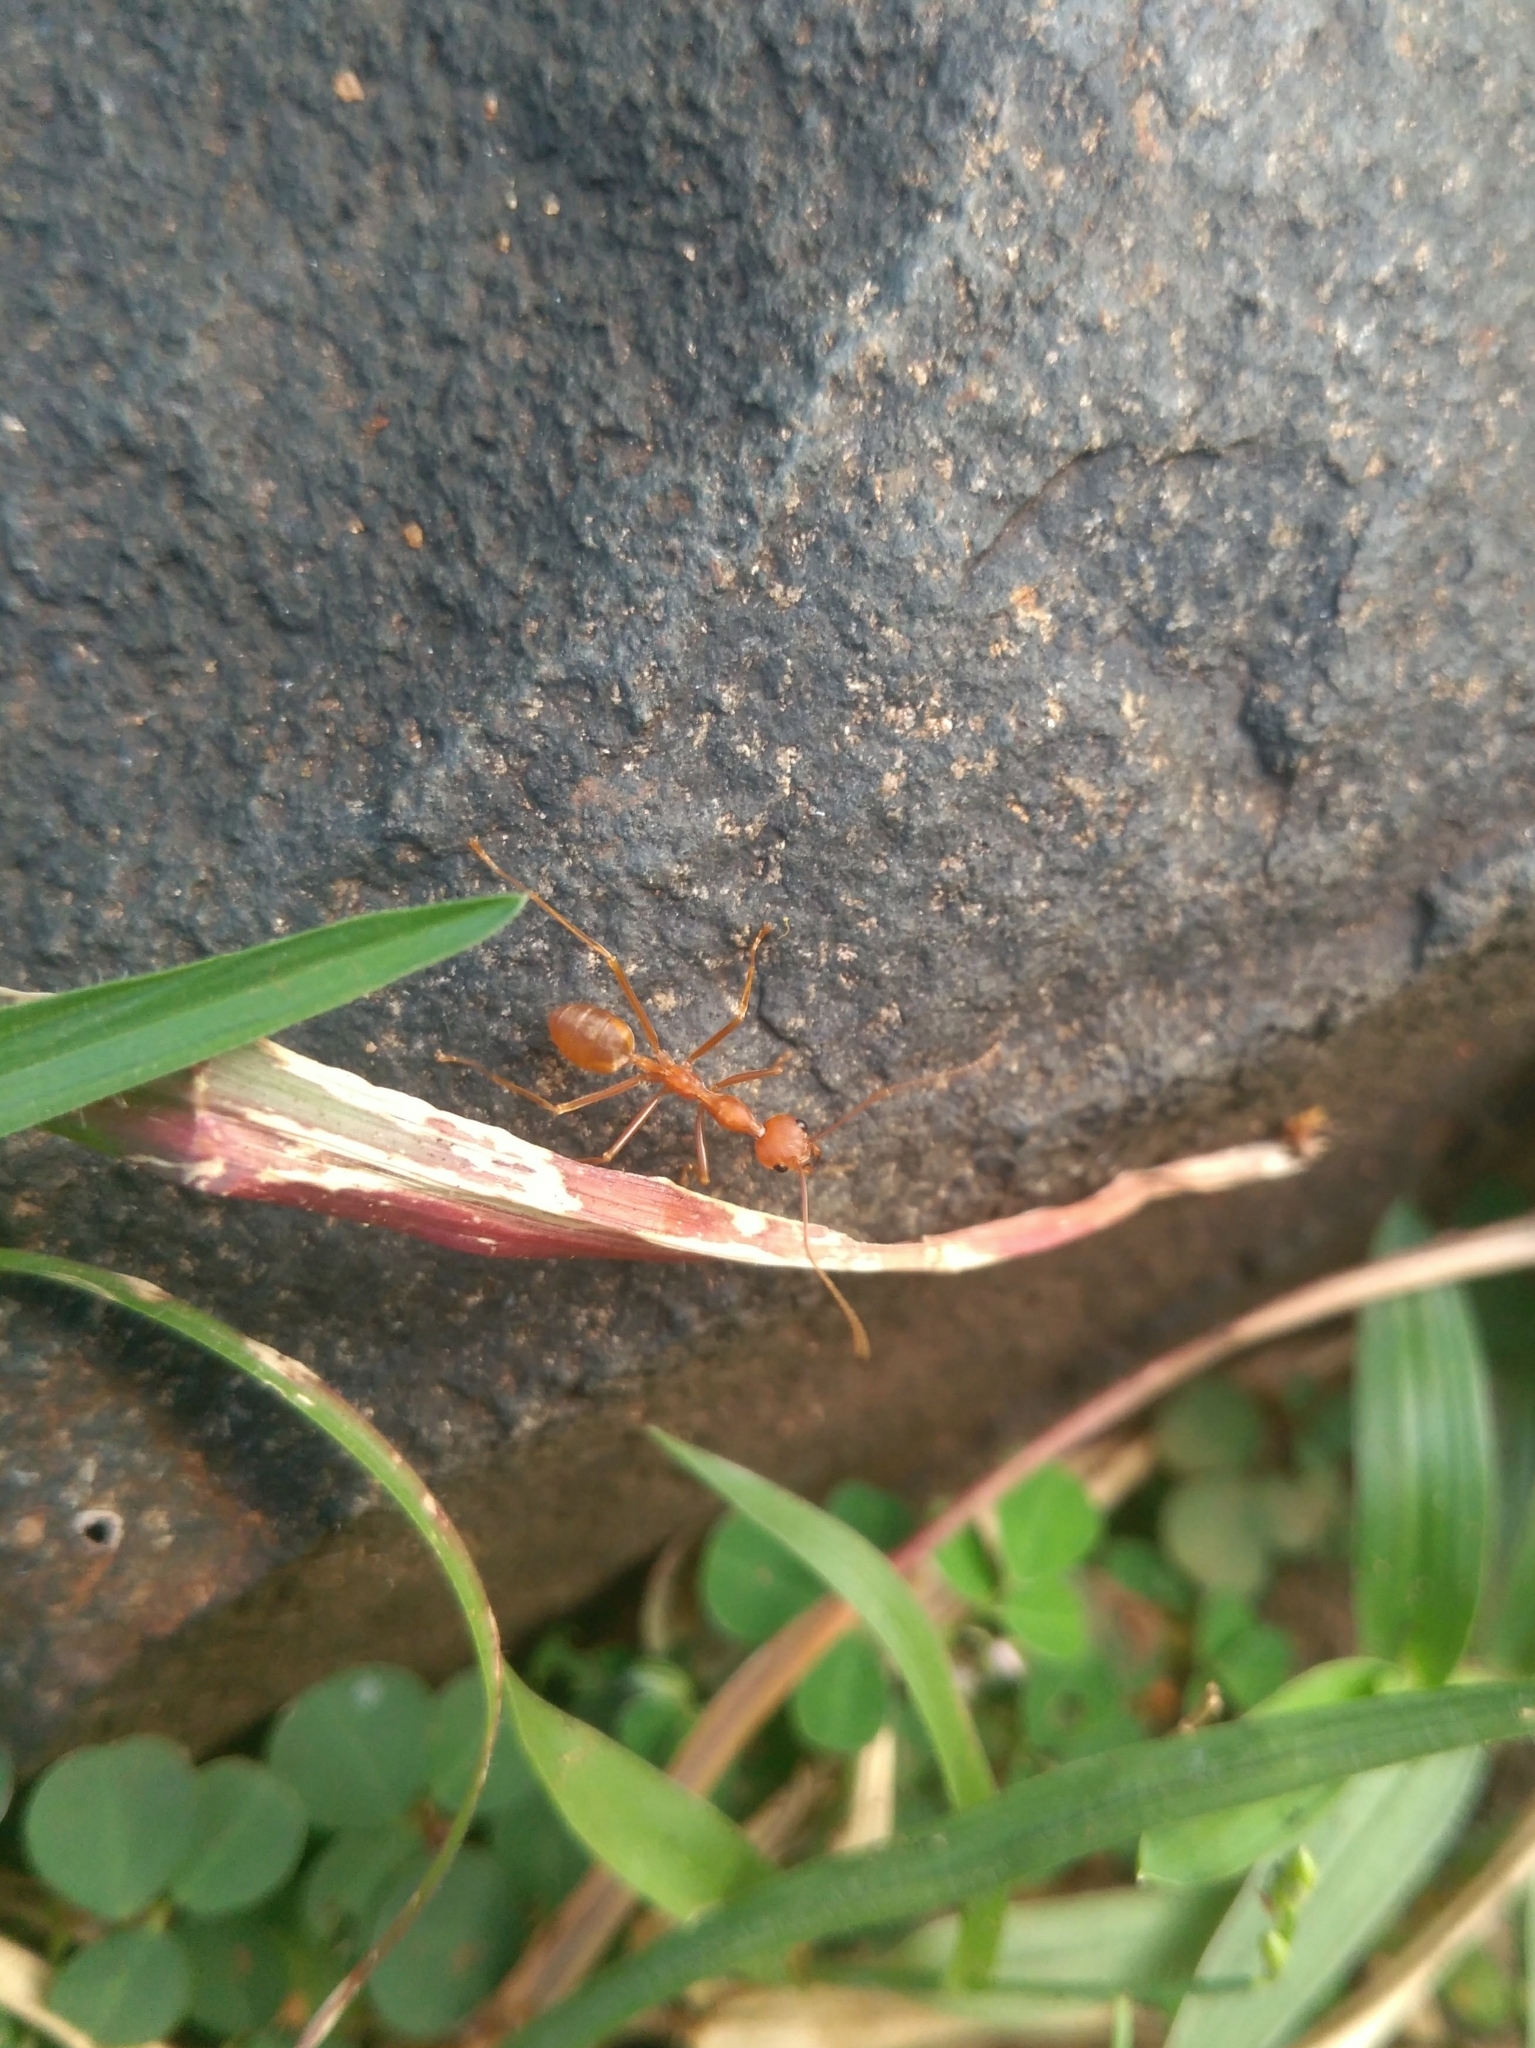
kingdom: Animalia
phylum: Arthropoda
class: Insecta
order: Hymenoptera
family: Formicidae
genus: Oecophylla
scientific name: Oecophylla smaragdina
